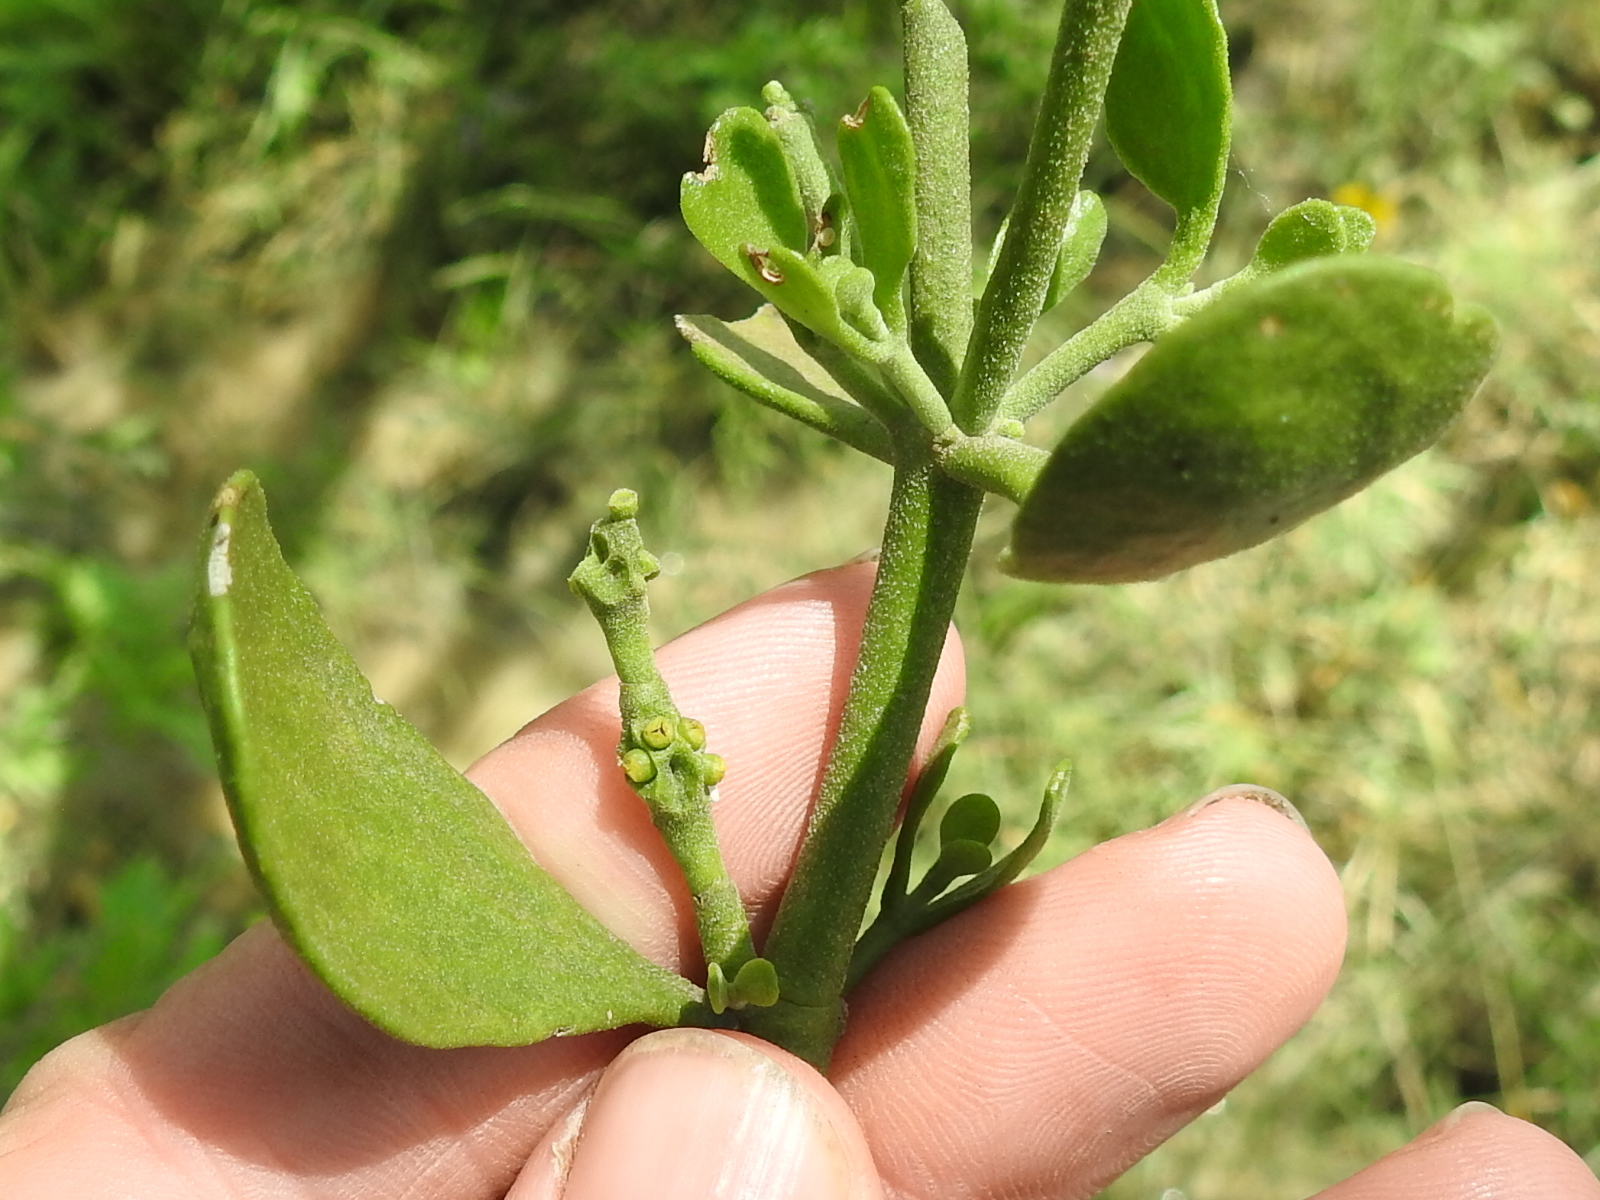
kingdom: Plantae
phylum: Tracheophyta
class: Magnoliopsida
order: Santalales
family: Viscaceae
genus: Phoradendron
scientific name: Phoradendron leucarpum
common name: Pacific mistletoe
